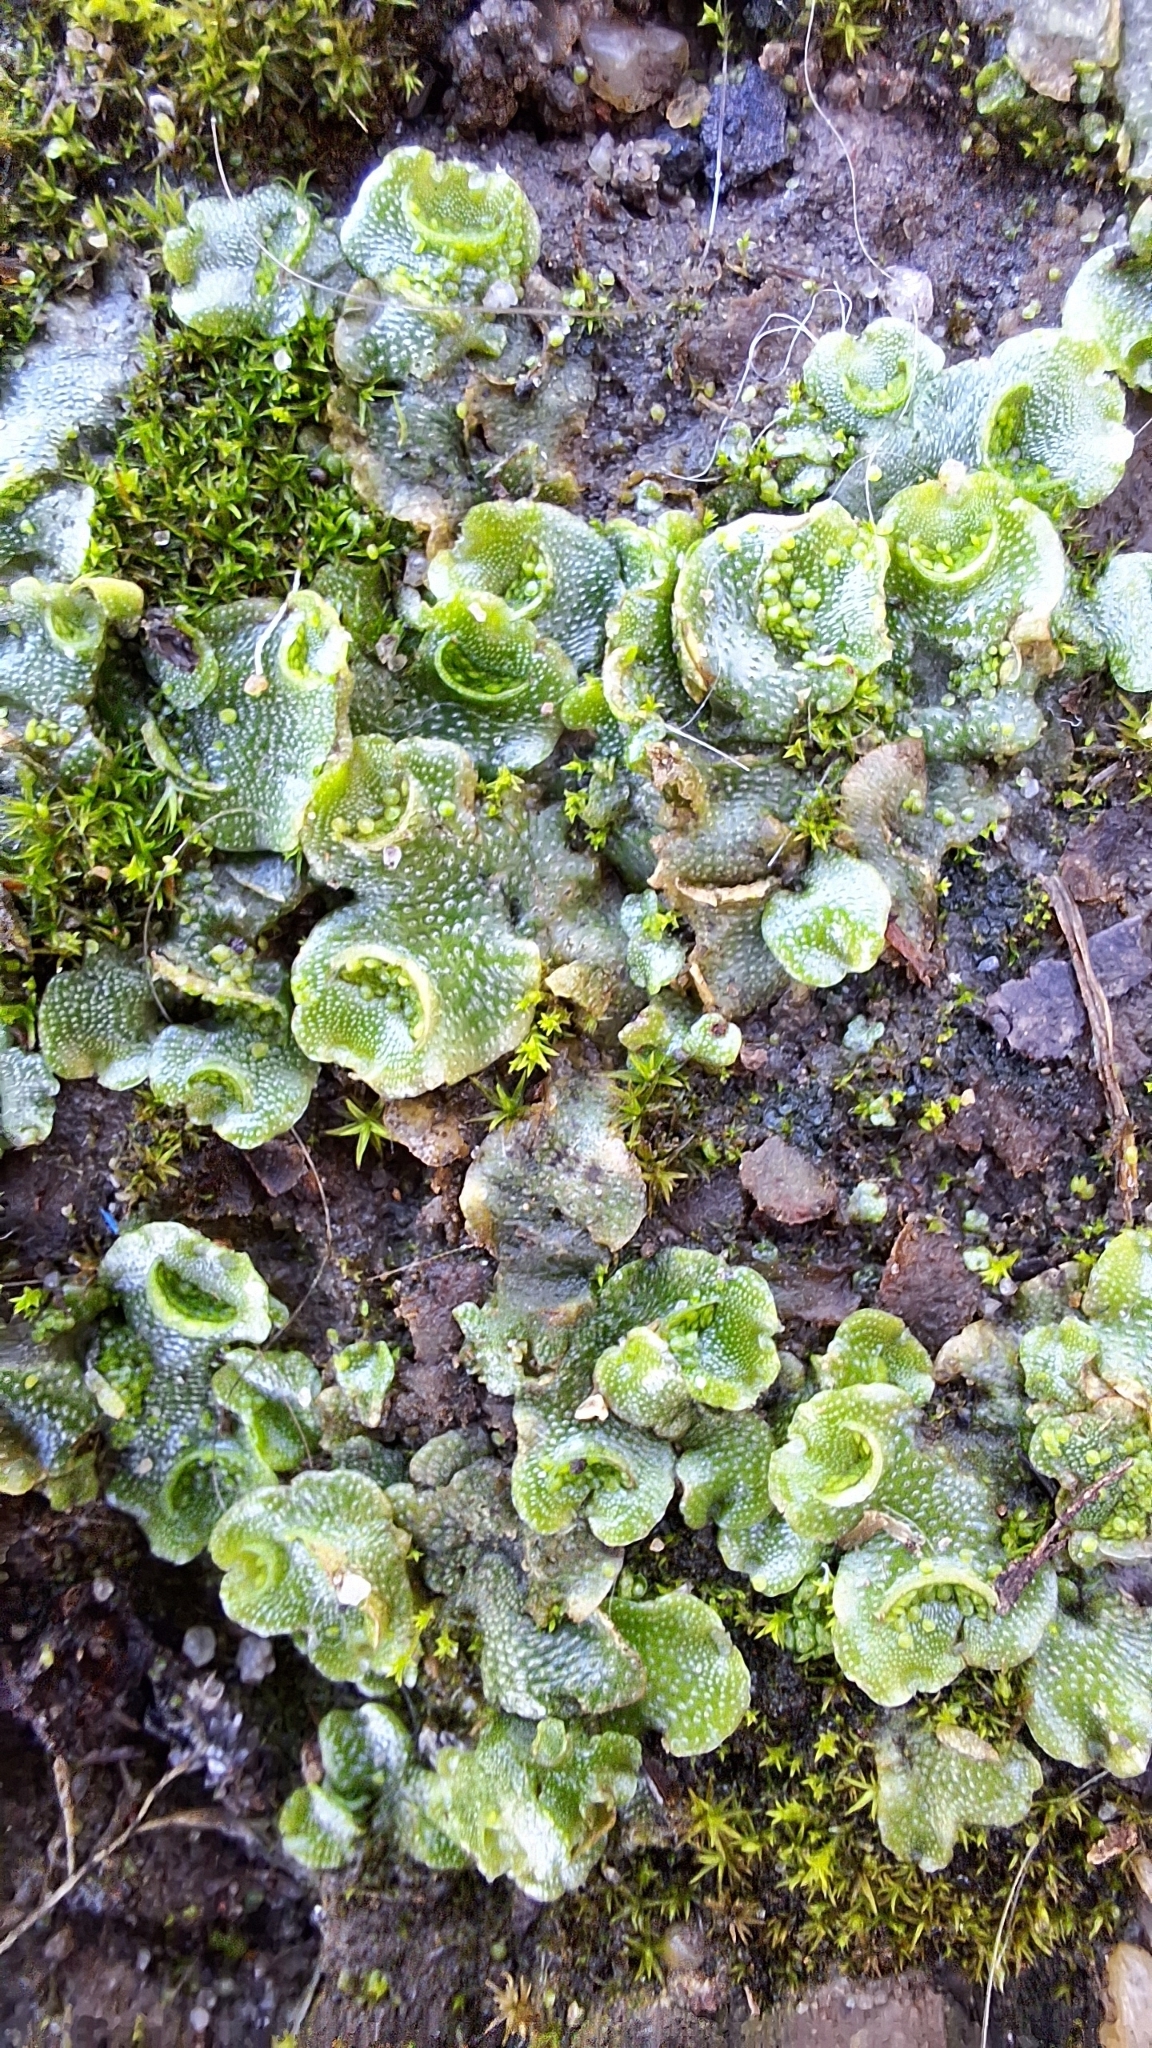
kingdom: Plantae
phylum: Marchantiophyta
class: Marchantiopsida
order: Lunulariales
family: Lunulariaceae
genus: Lunularia
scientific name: Lunularia cruciata
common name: Crescent-cup liverwort
